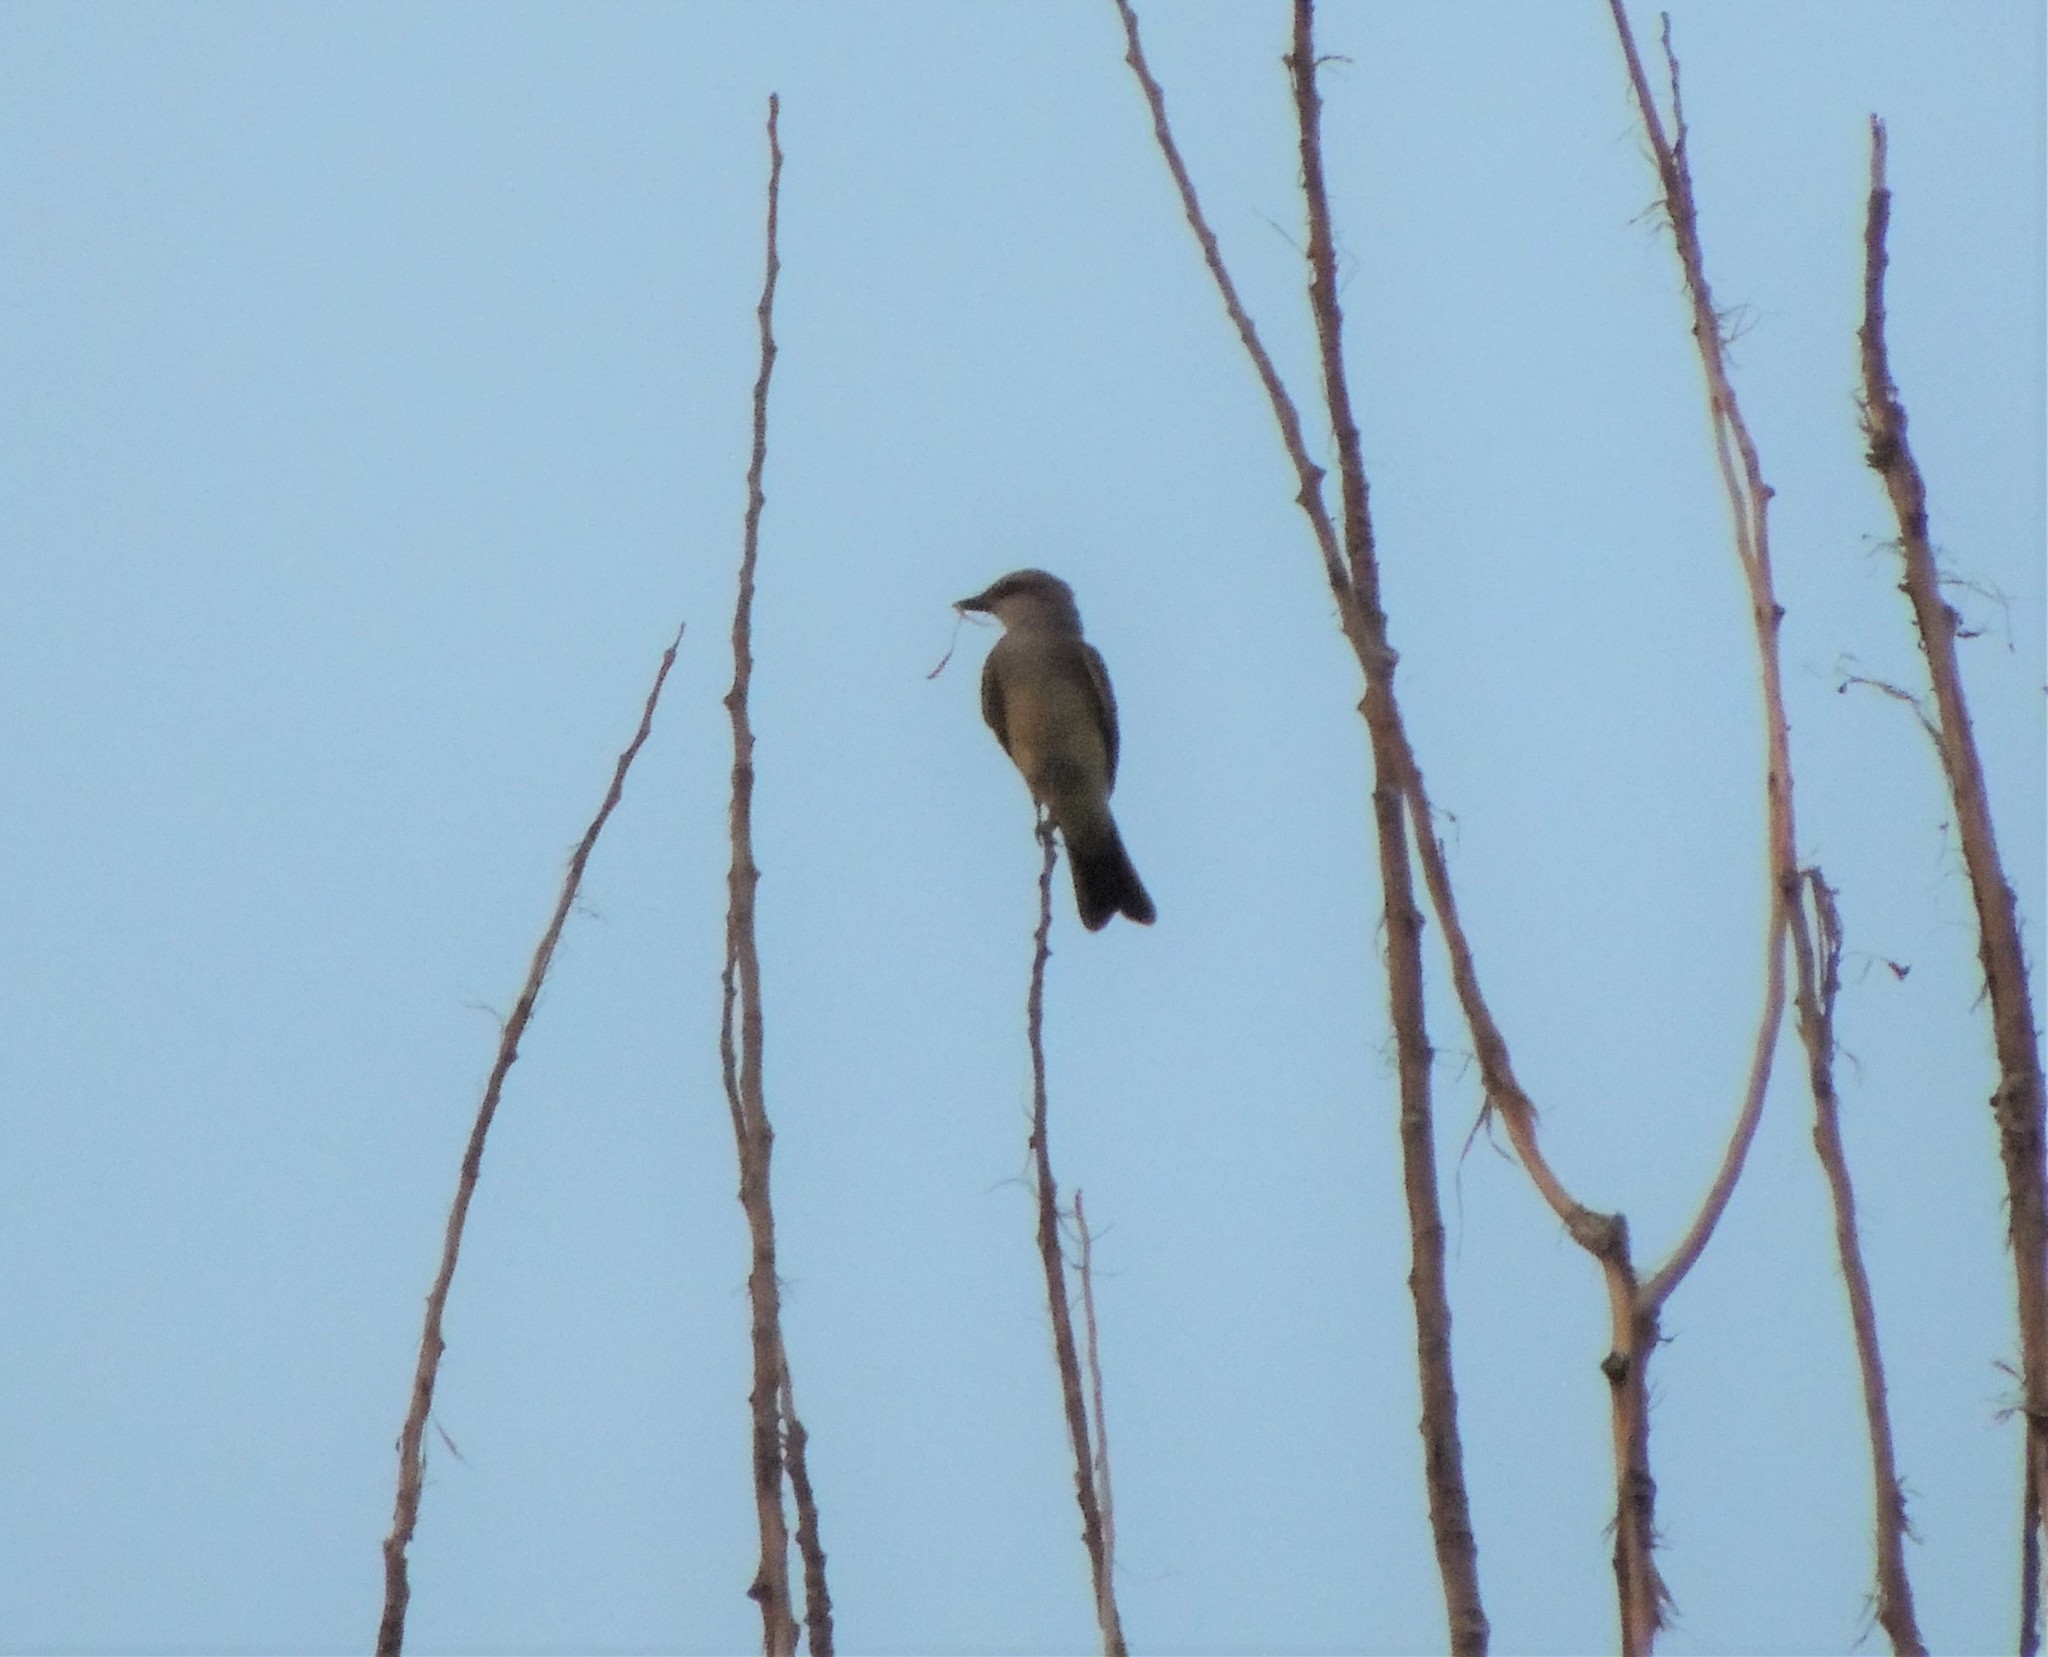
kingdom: Animalia
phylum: Chordata
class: Aves
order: Passeriformes
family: Tyrannidae
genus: Tyrannus
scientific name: Tyrannus verticalis
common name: Western kingbird
